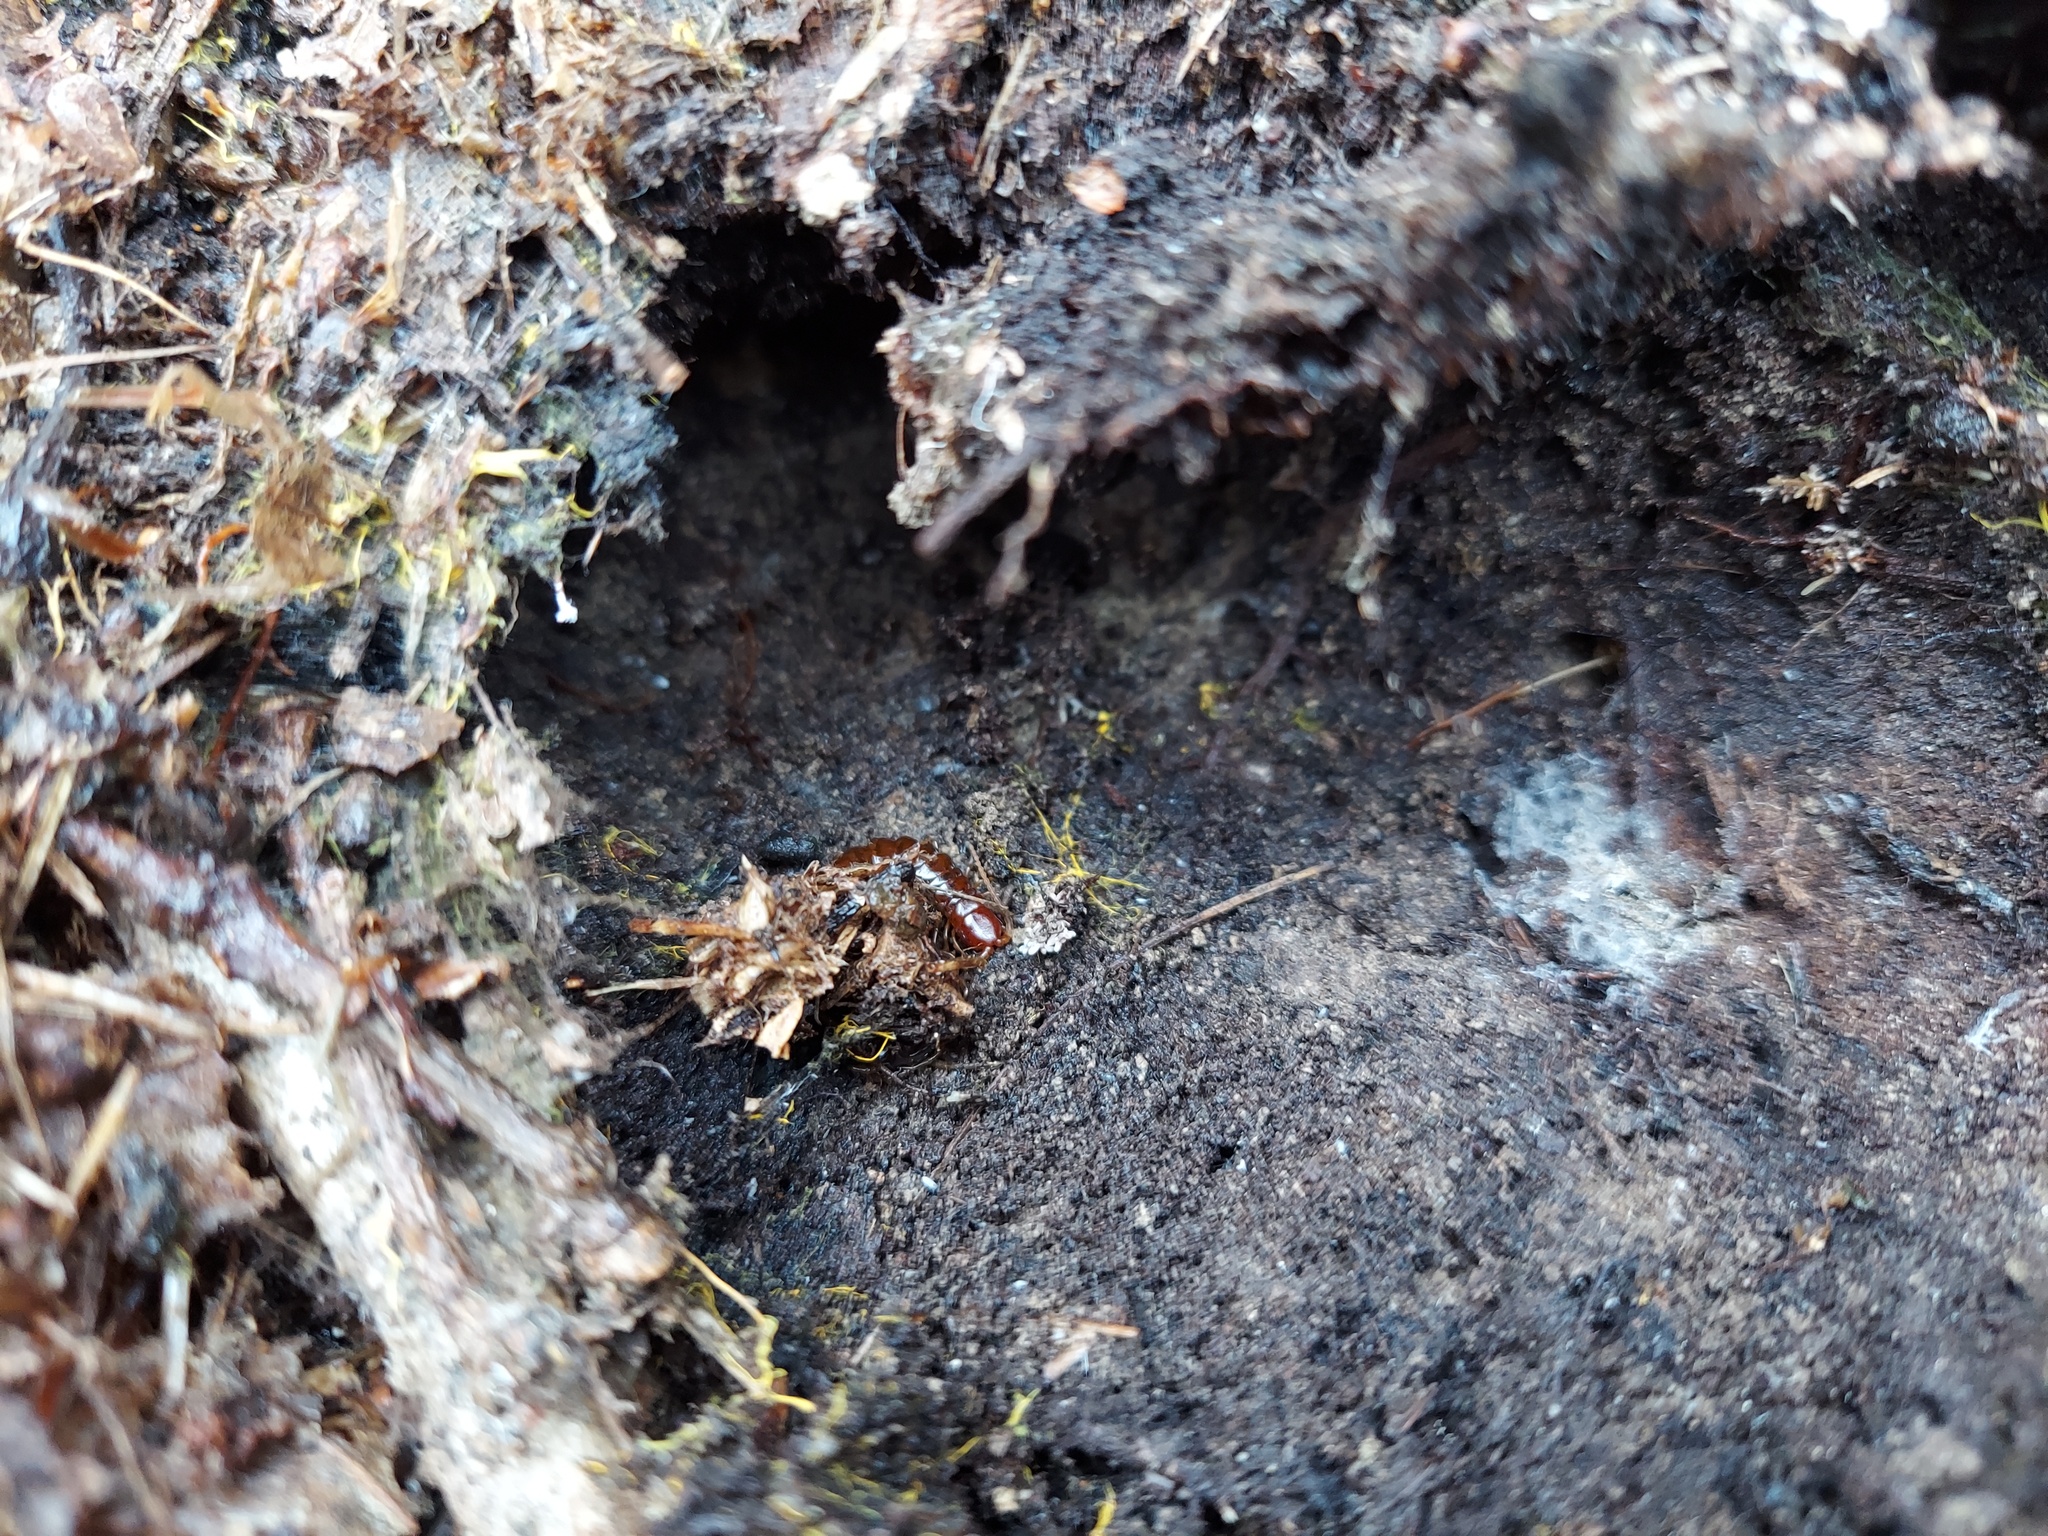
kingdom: Animalia
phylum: Arthropoda
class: Chilopoda
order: Scolopendromorpha
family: Scolopocryptopidae
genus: Scolopocryptops
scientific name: Scolopocryptops nigridius
